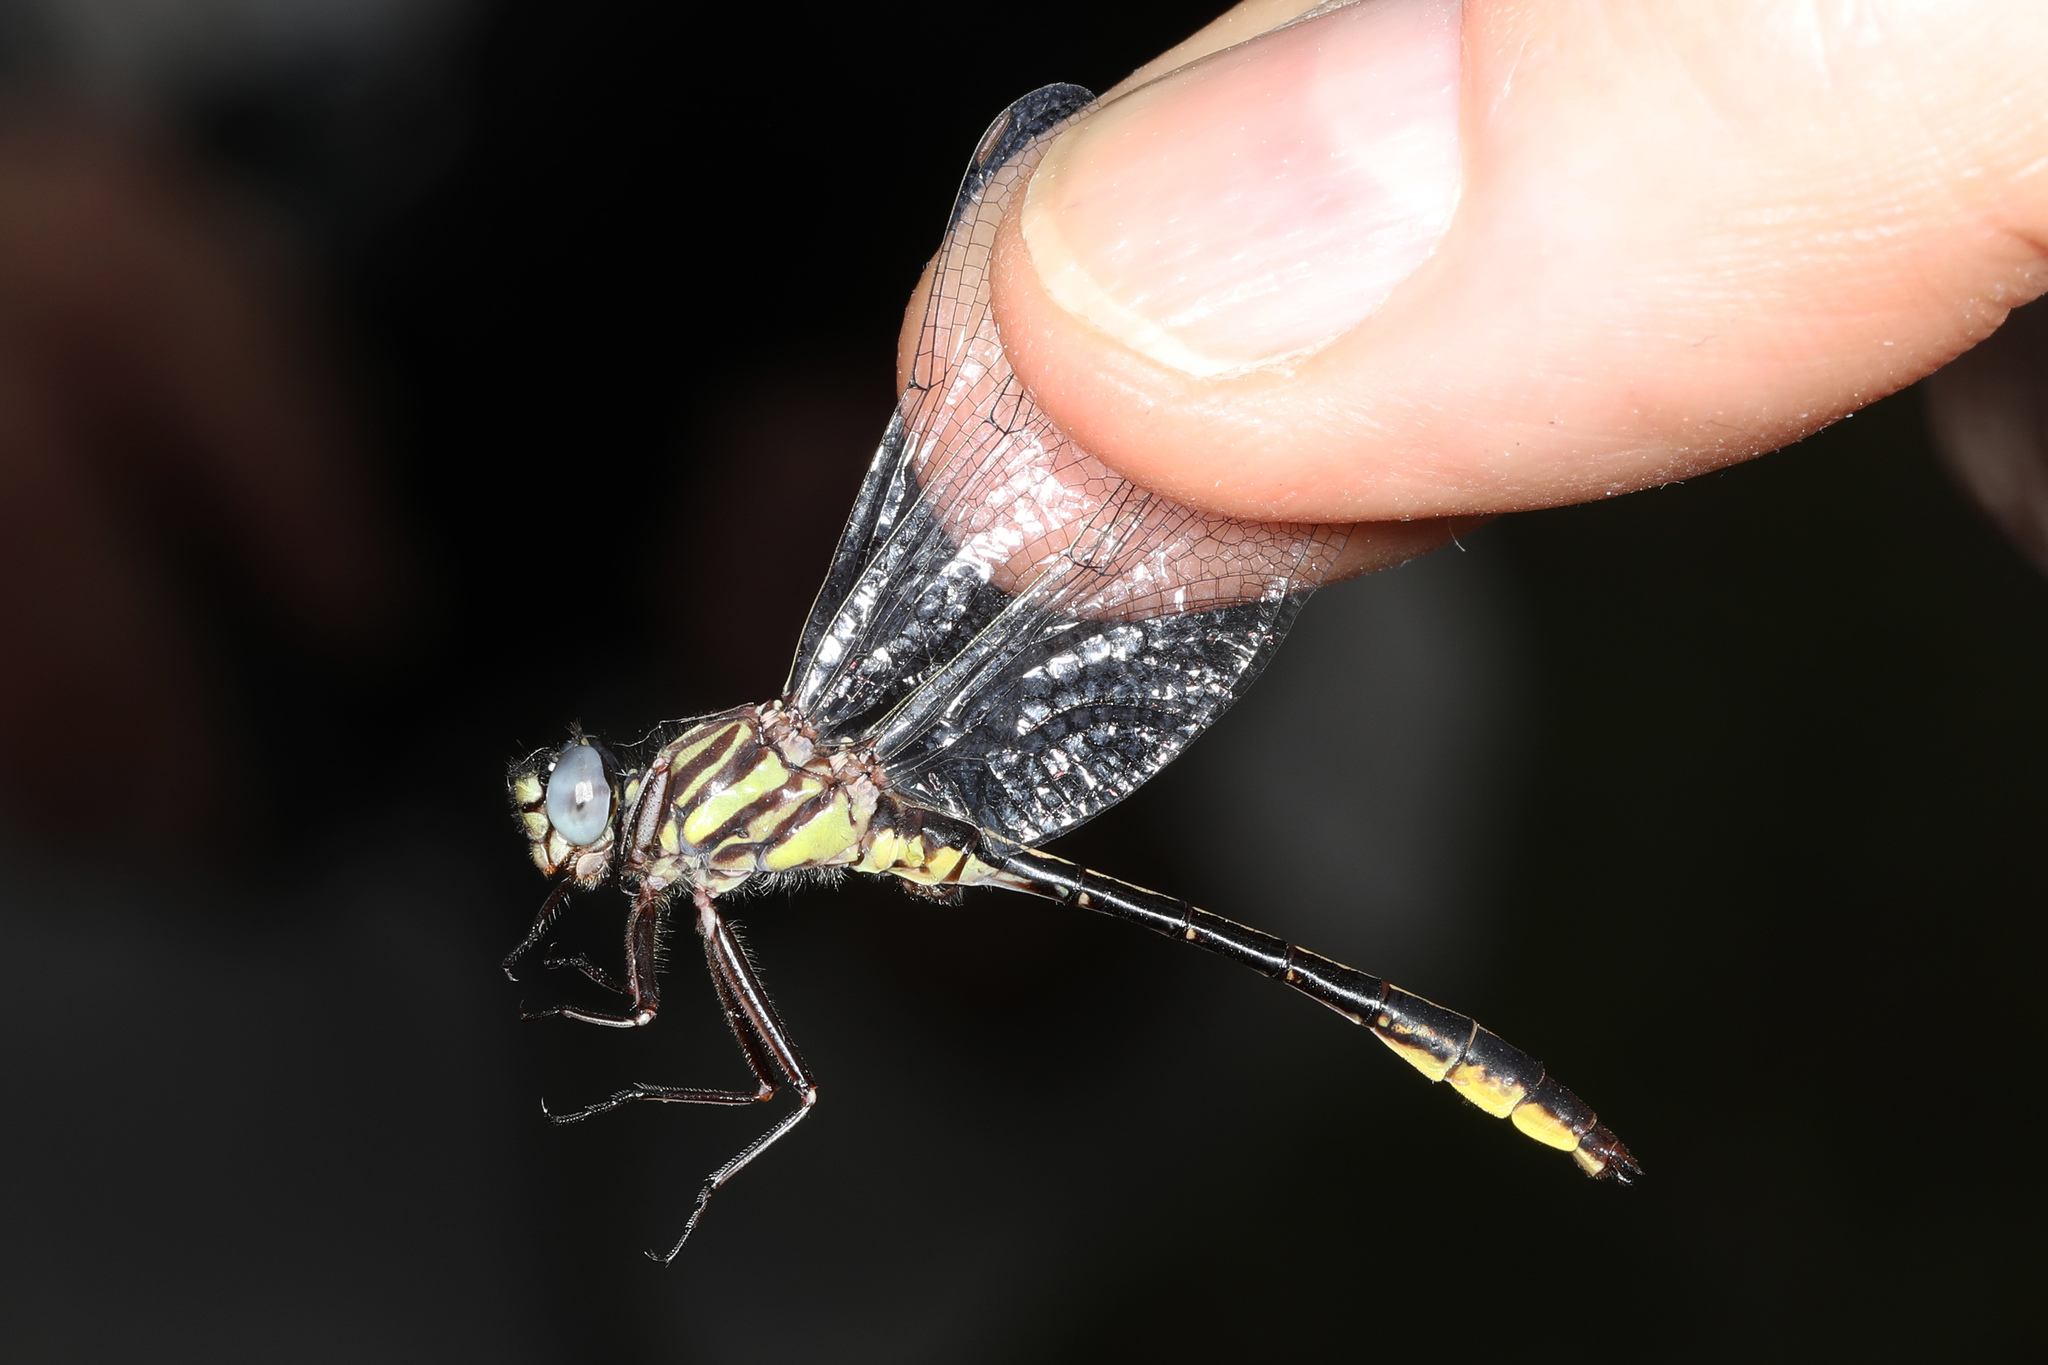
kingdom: Animalia
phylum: Arthropoda
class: Insecta
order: Odonata
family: Gomphidae
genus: Hylogomphus
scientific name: Hylogomphus geminatus
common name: Twin-striped clubtail
